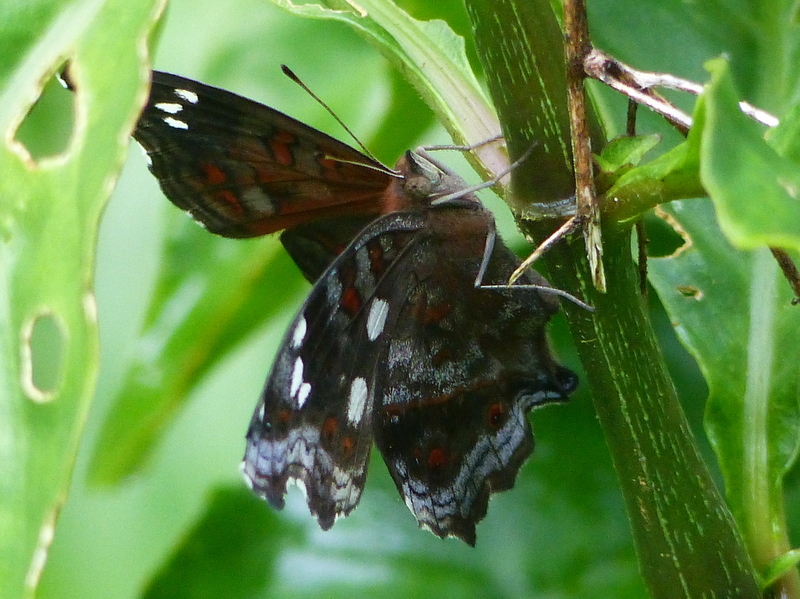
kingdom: Animalia
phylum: Arthropoda
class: Insecta
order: Lepidoptera
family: Nymphalidae
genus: Junonia
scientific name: Junonia natalica
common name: Brown pansy
